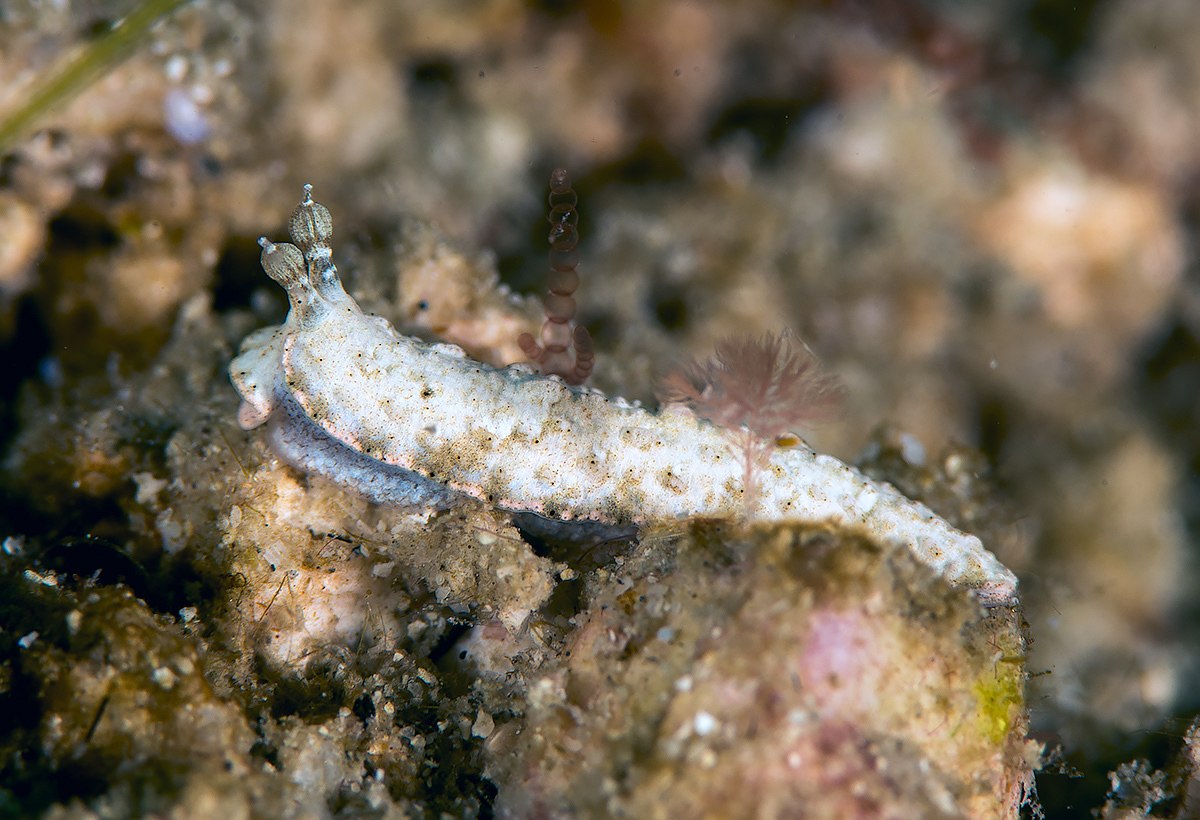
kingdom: Animalia
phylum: Mollusca
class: Gastropoda
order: Nudibranchia
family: Arminidae
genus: Dermatobranchus
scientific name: Dermatobranchus tuberculatus
